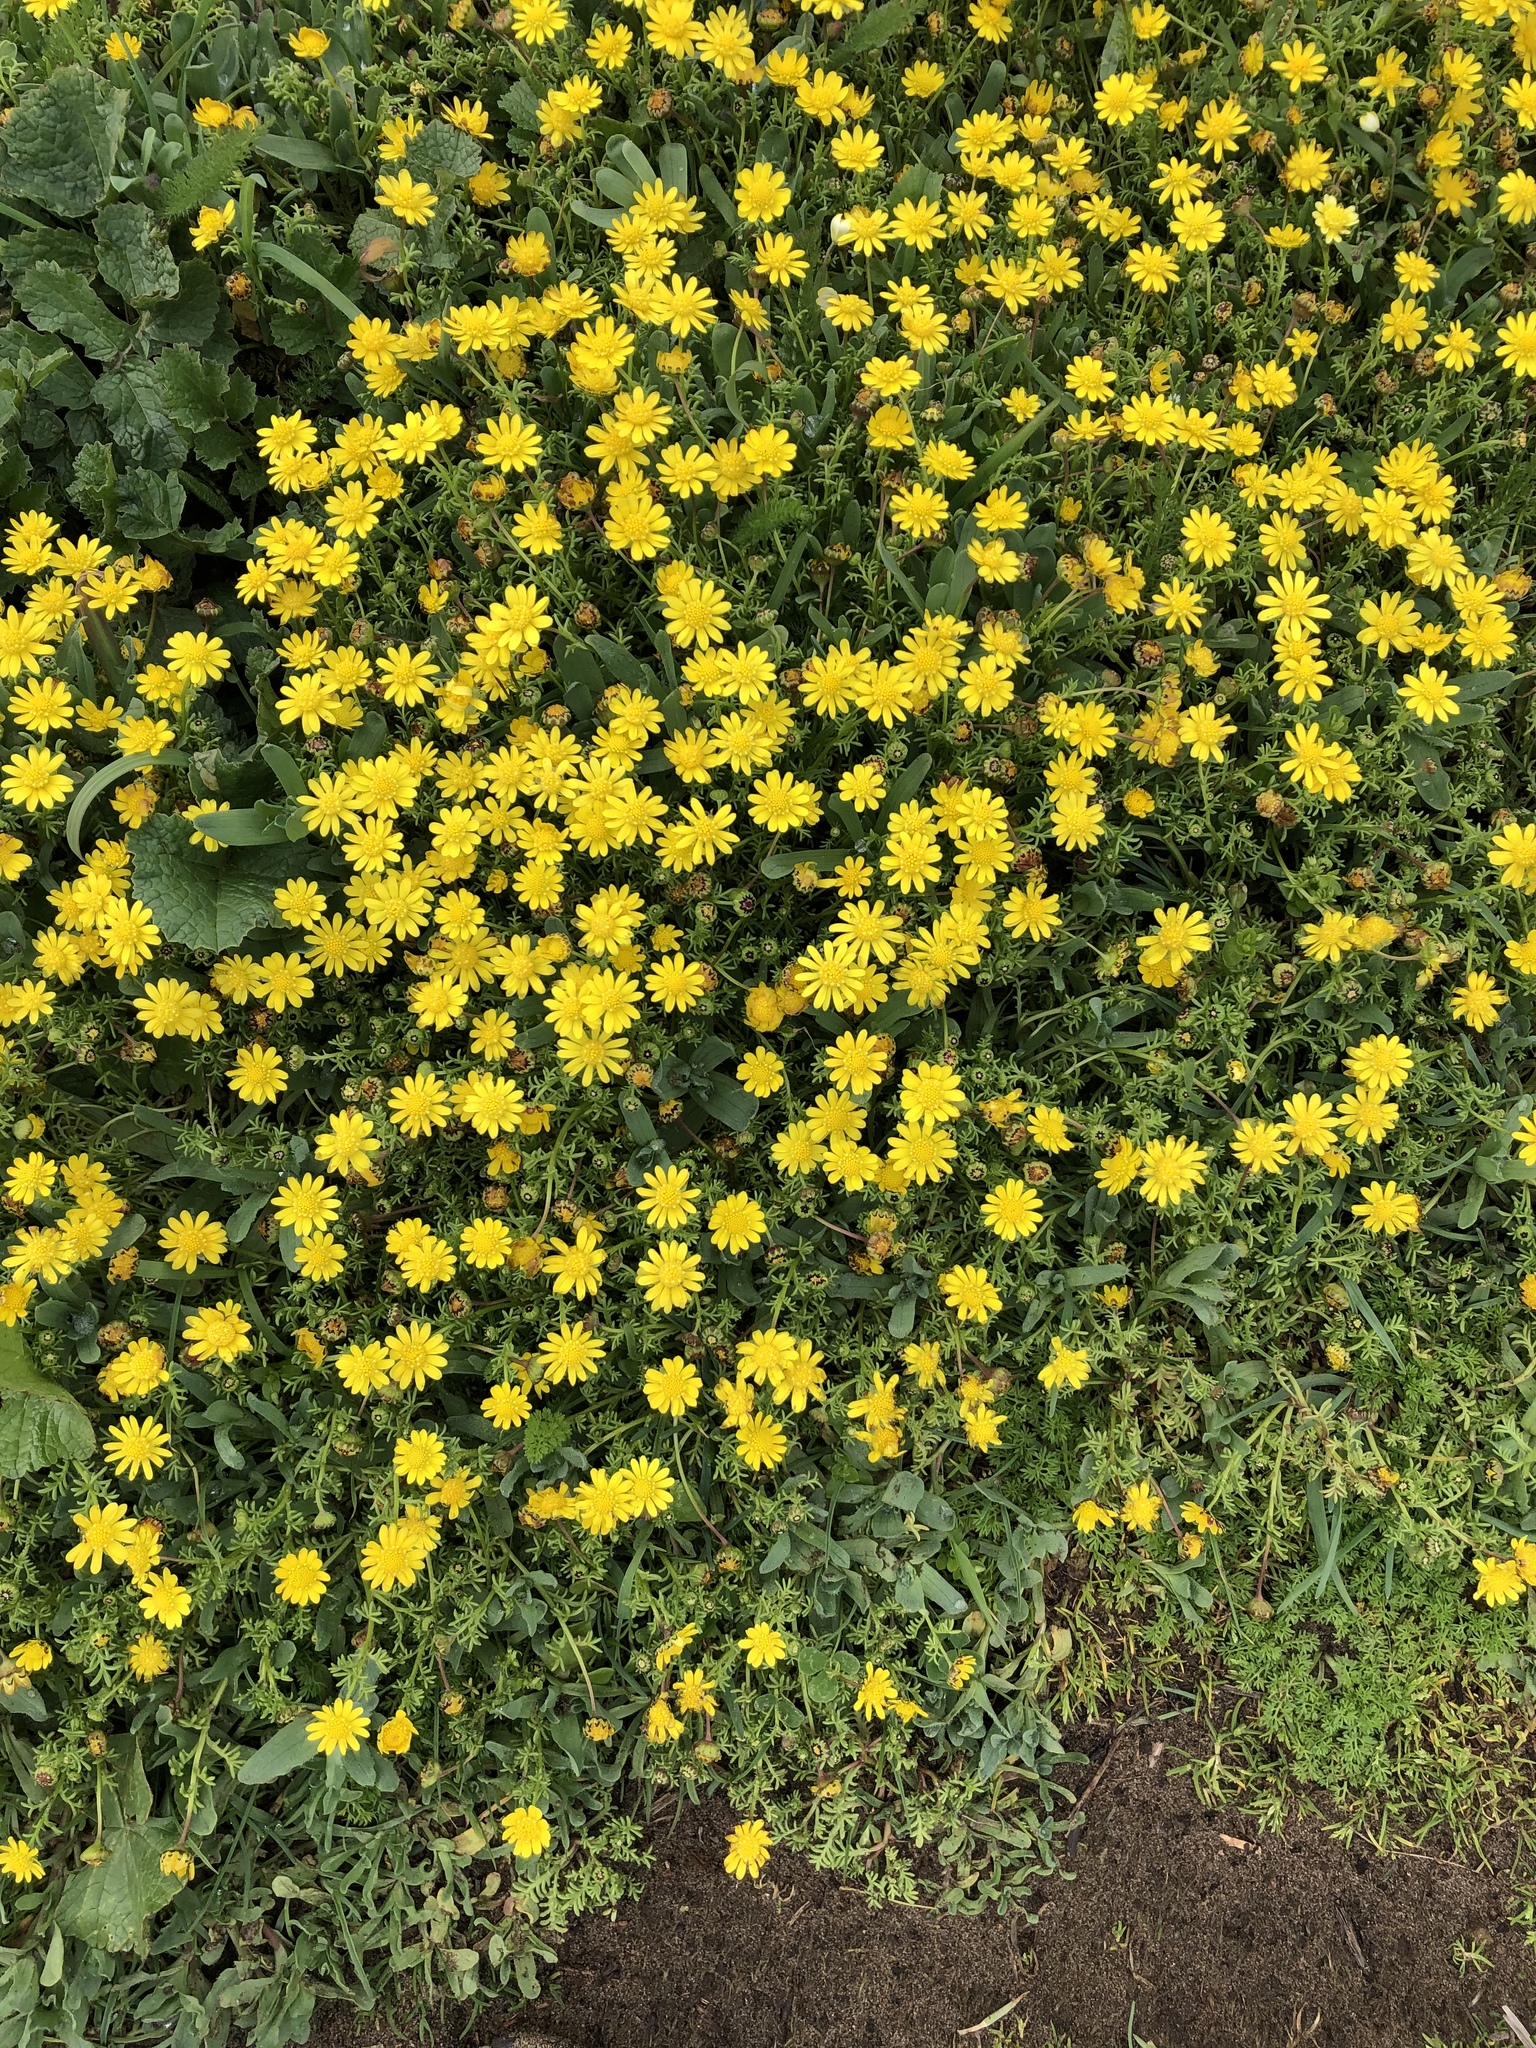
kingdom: Plantae
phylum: Tracheophyta
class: Magnoliopsida
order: Asterales
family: Asteraceae
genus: Lasthenia
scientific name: Lasthenia californica
